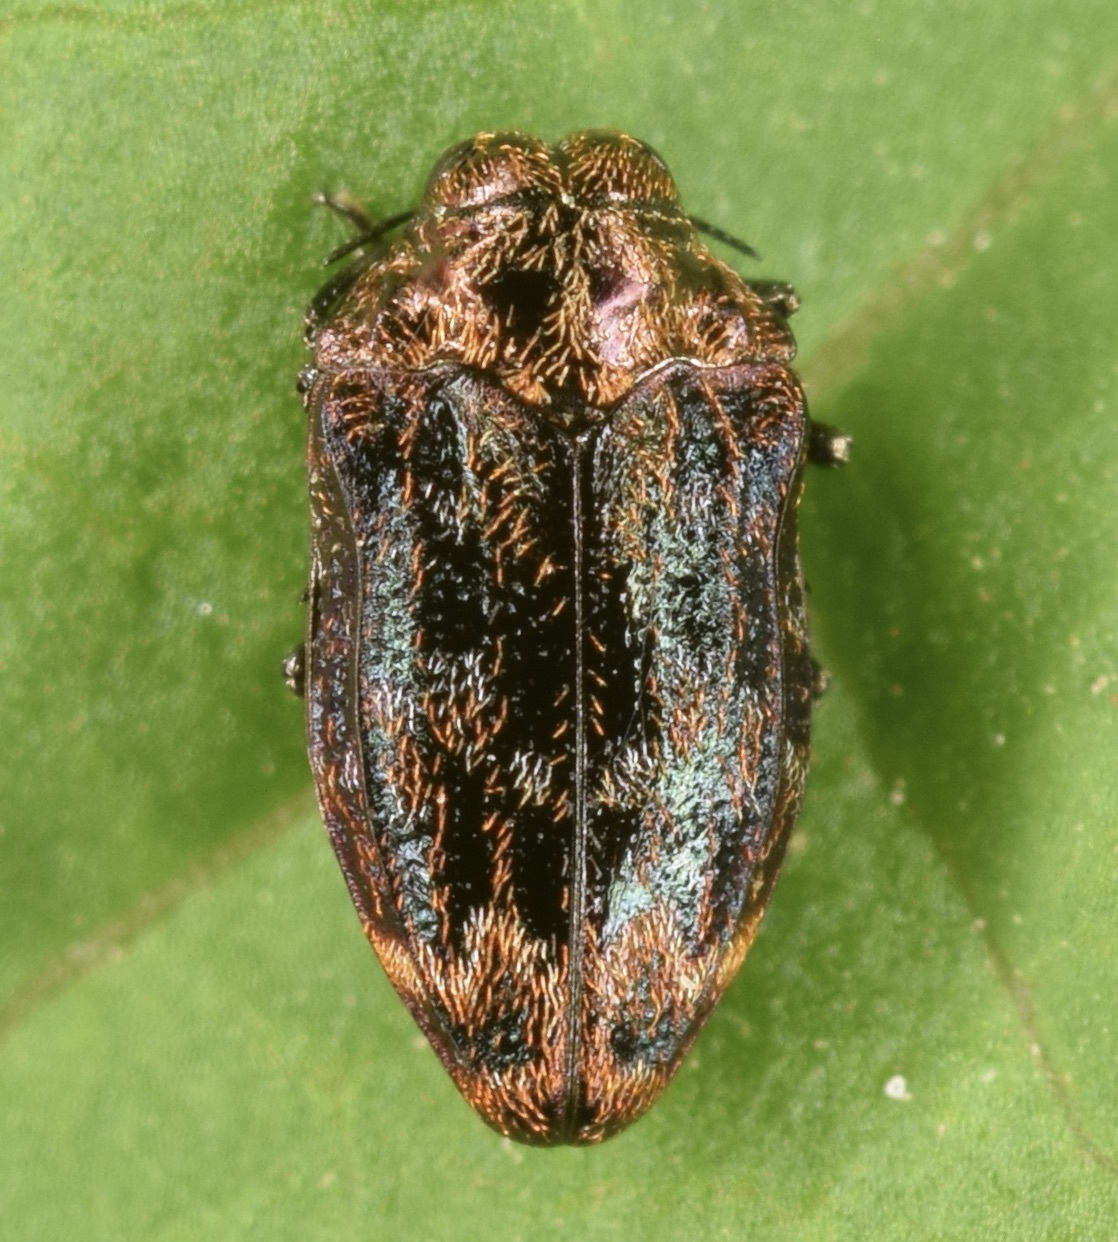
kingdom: Animalia
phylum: Arthropoda
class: Insecta
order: Coleoptera
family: Buprestidae
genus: Brachys
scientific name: Brachys aerosus
